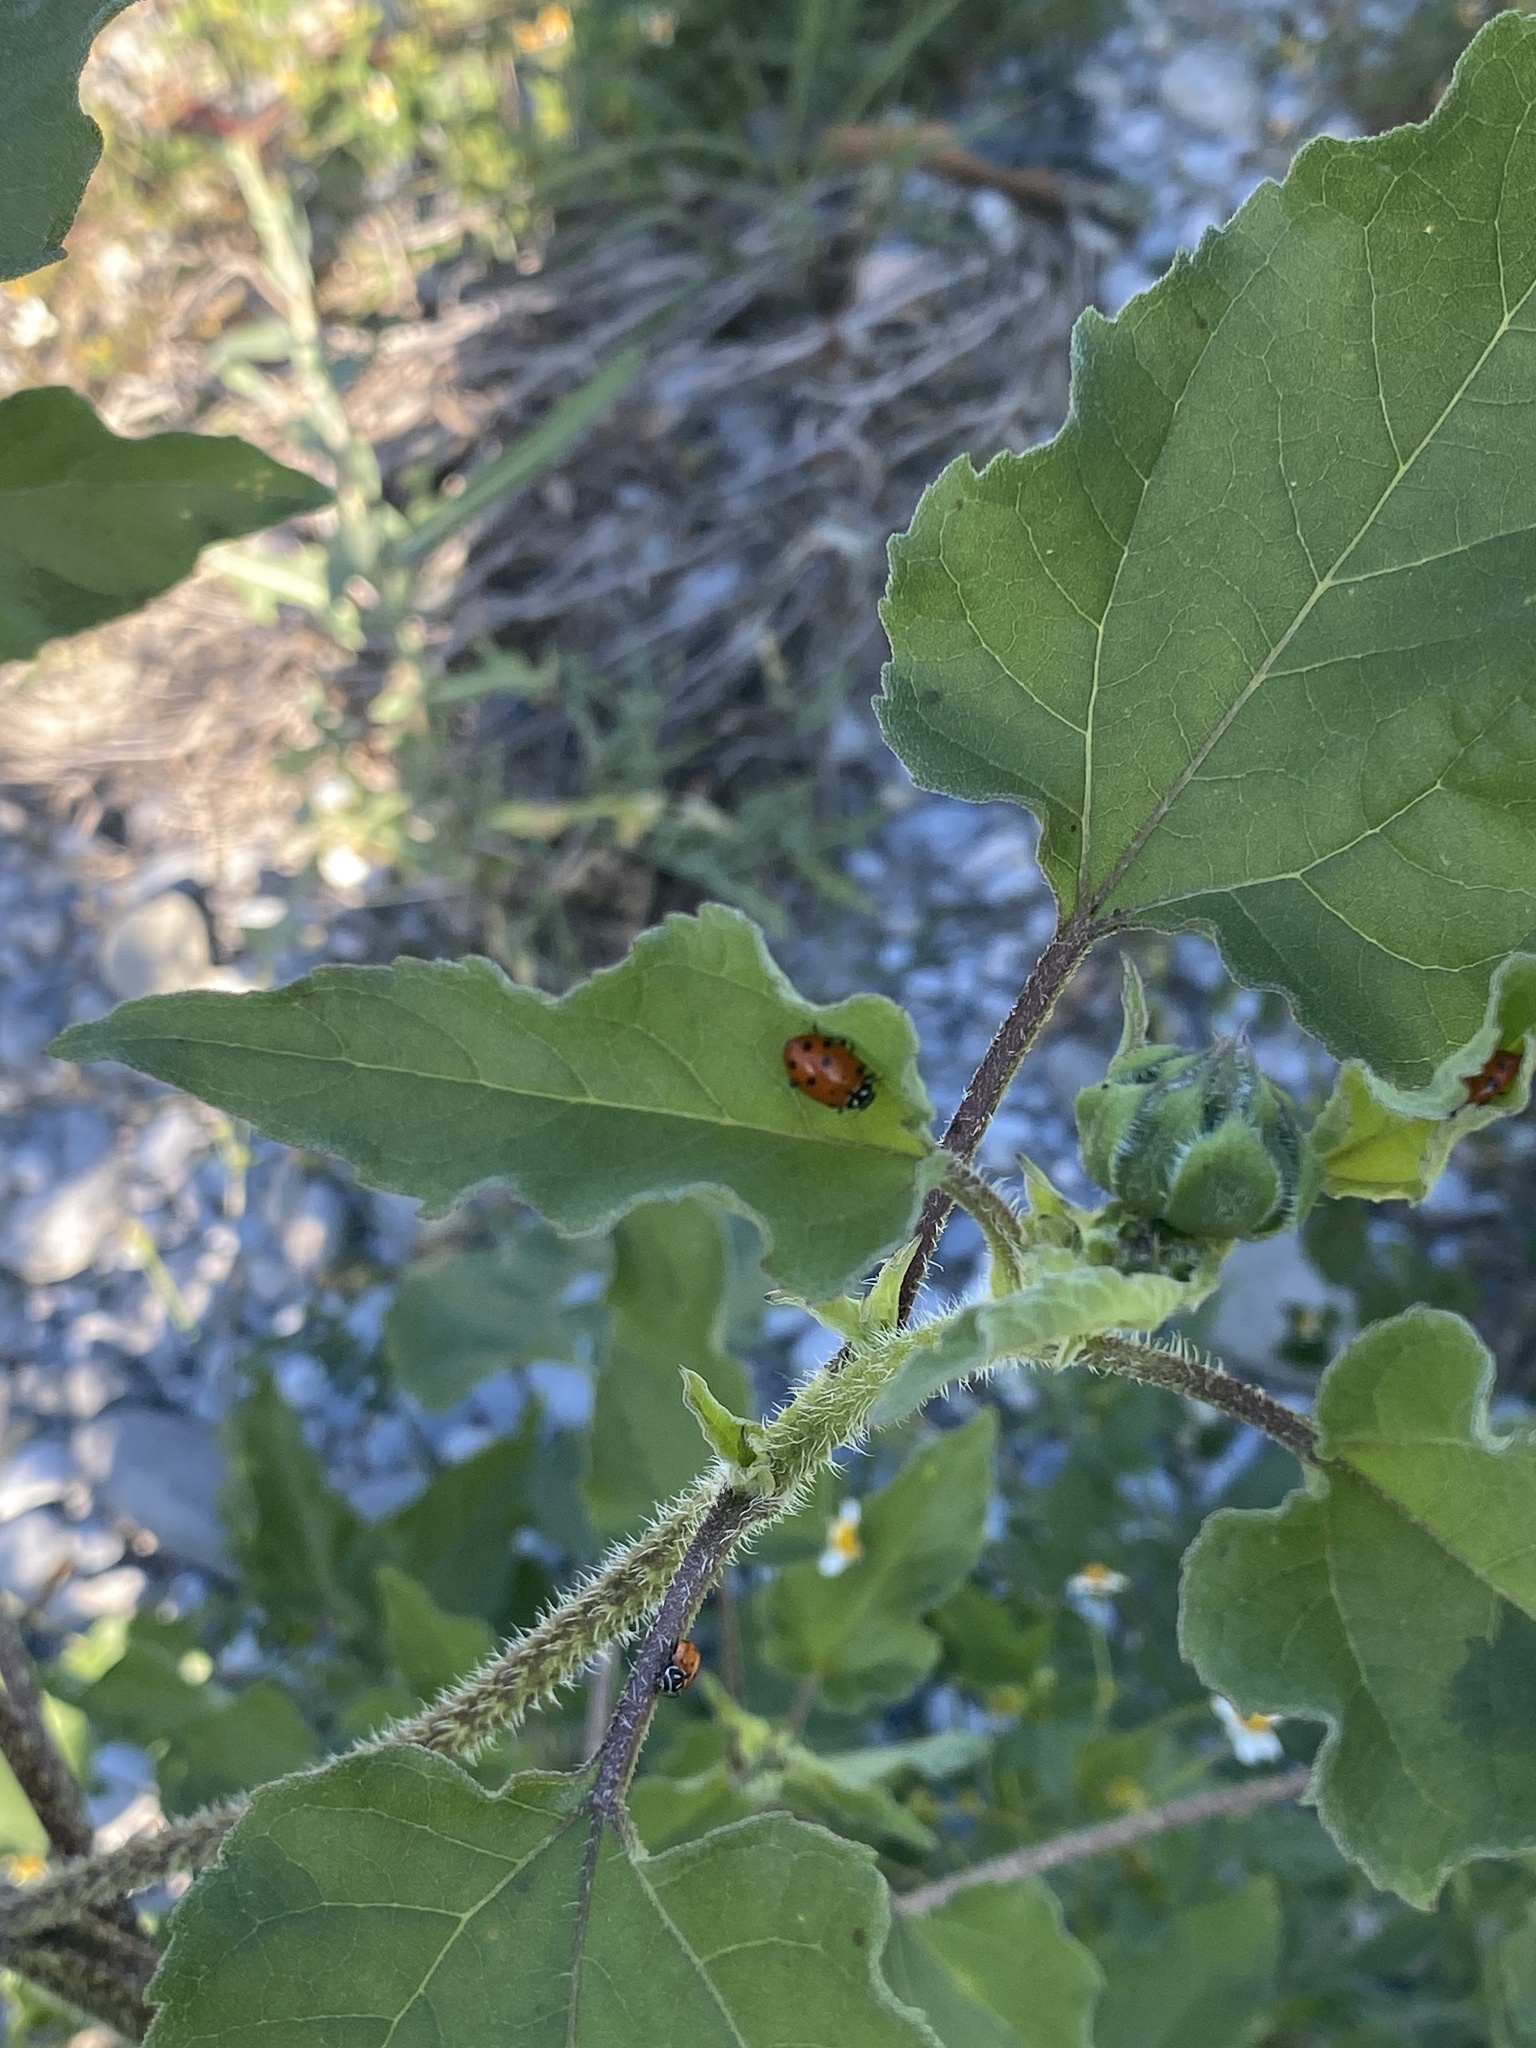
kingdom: Animalia
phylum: Arthropoda
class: Insecta
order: Coleoptera
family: Coccinellidae
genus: Hippodamia
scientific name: Hippodamia convergens
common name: Convergent lady beetle
